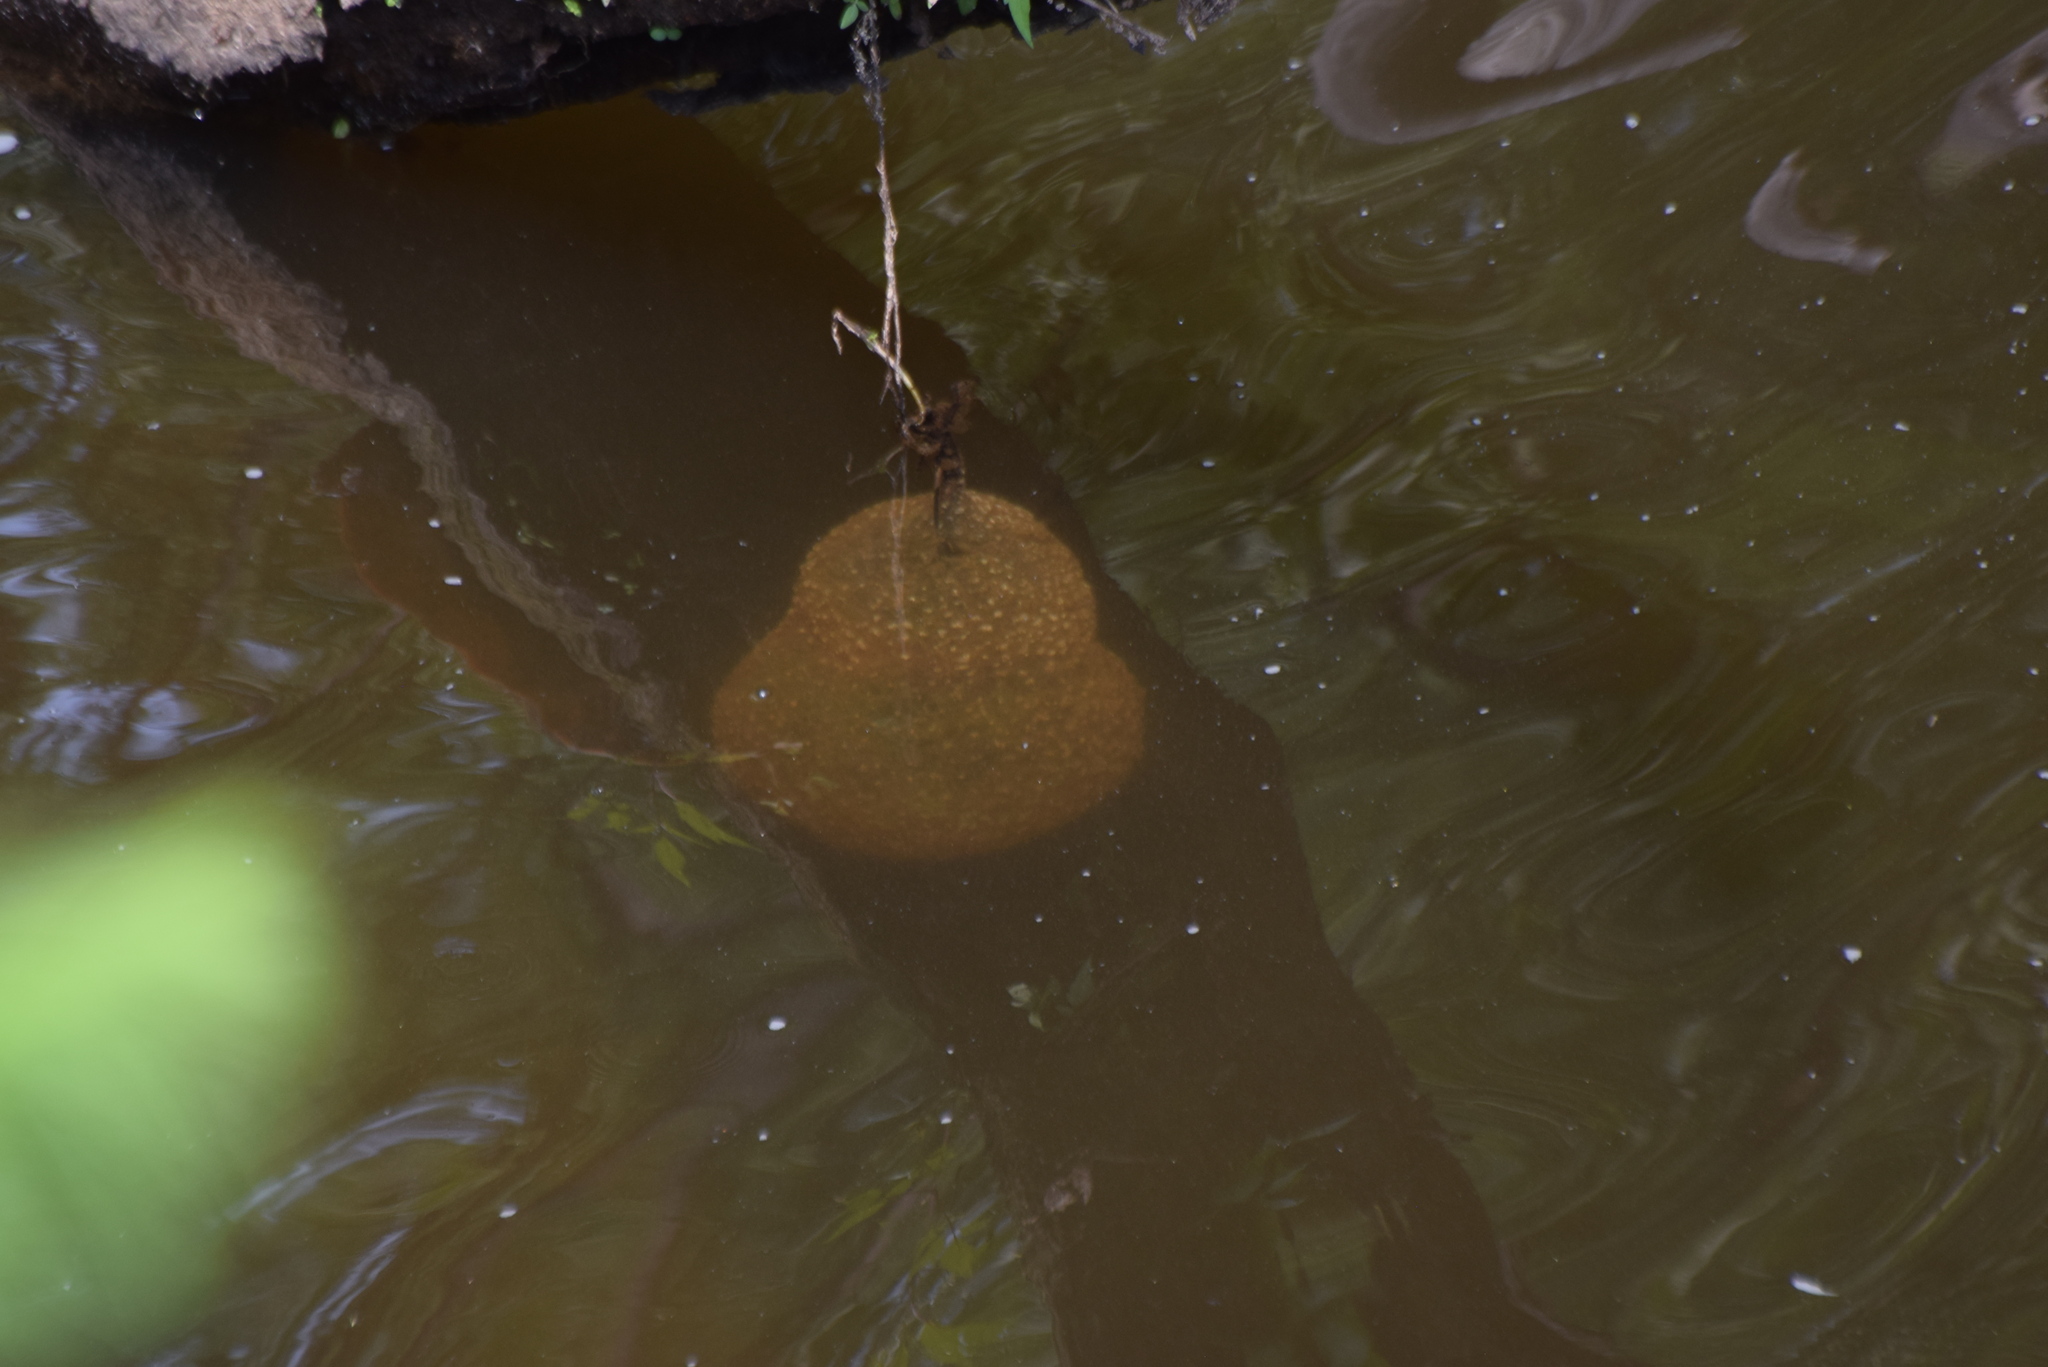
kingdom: Animalia
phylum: Bryozoa
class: Phylactolaemata
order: Plumatellida
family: Pectinatellidae
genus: Pectinatella
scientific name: Pectinatella magnifica
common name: Magnificent bryozoan
